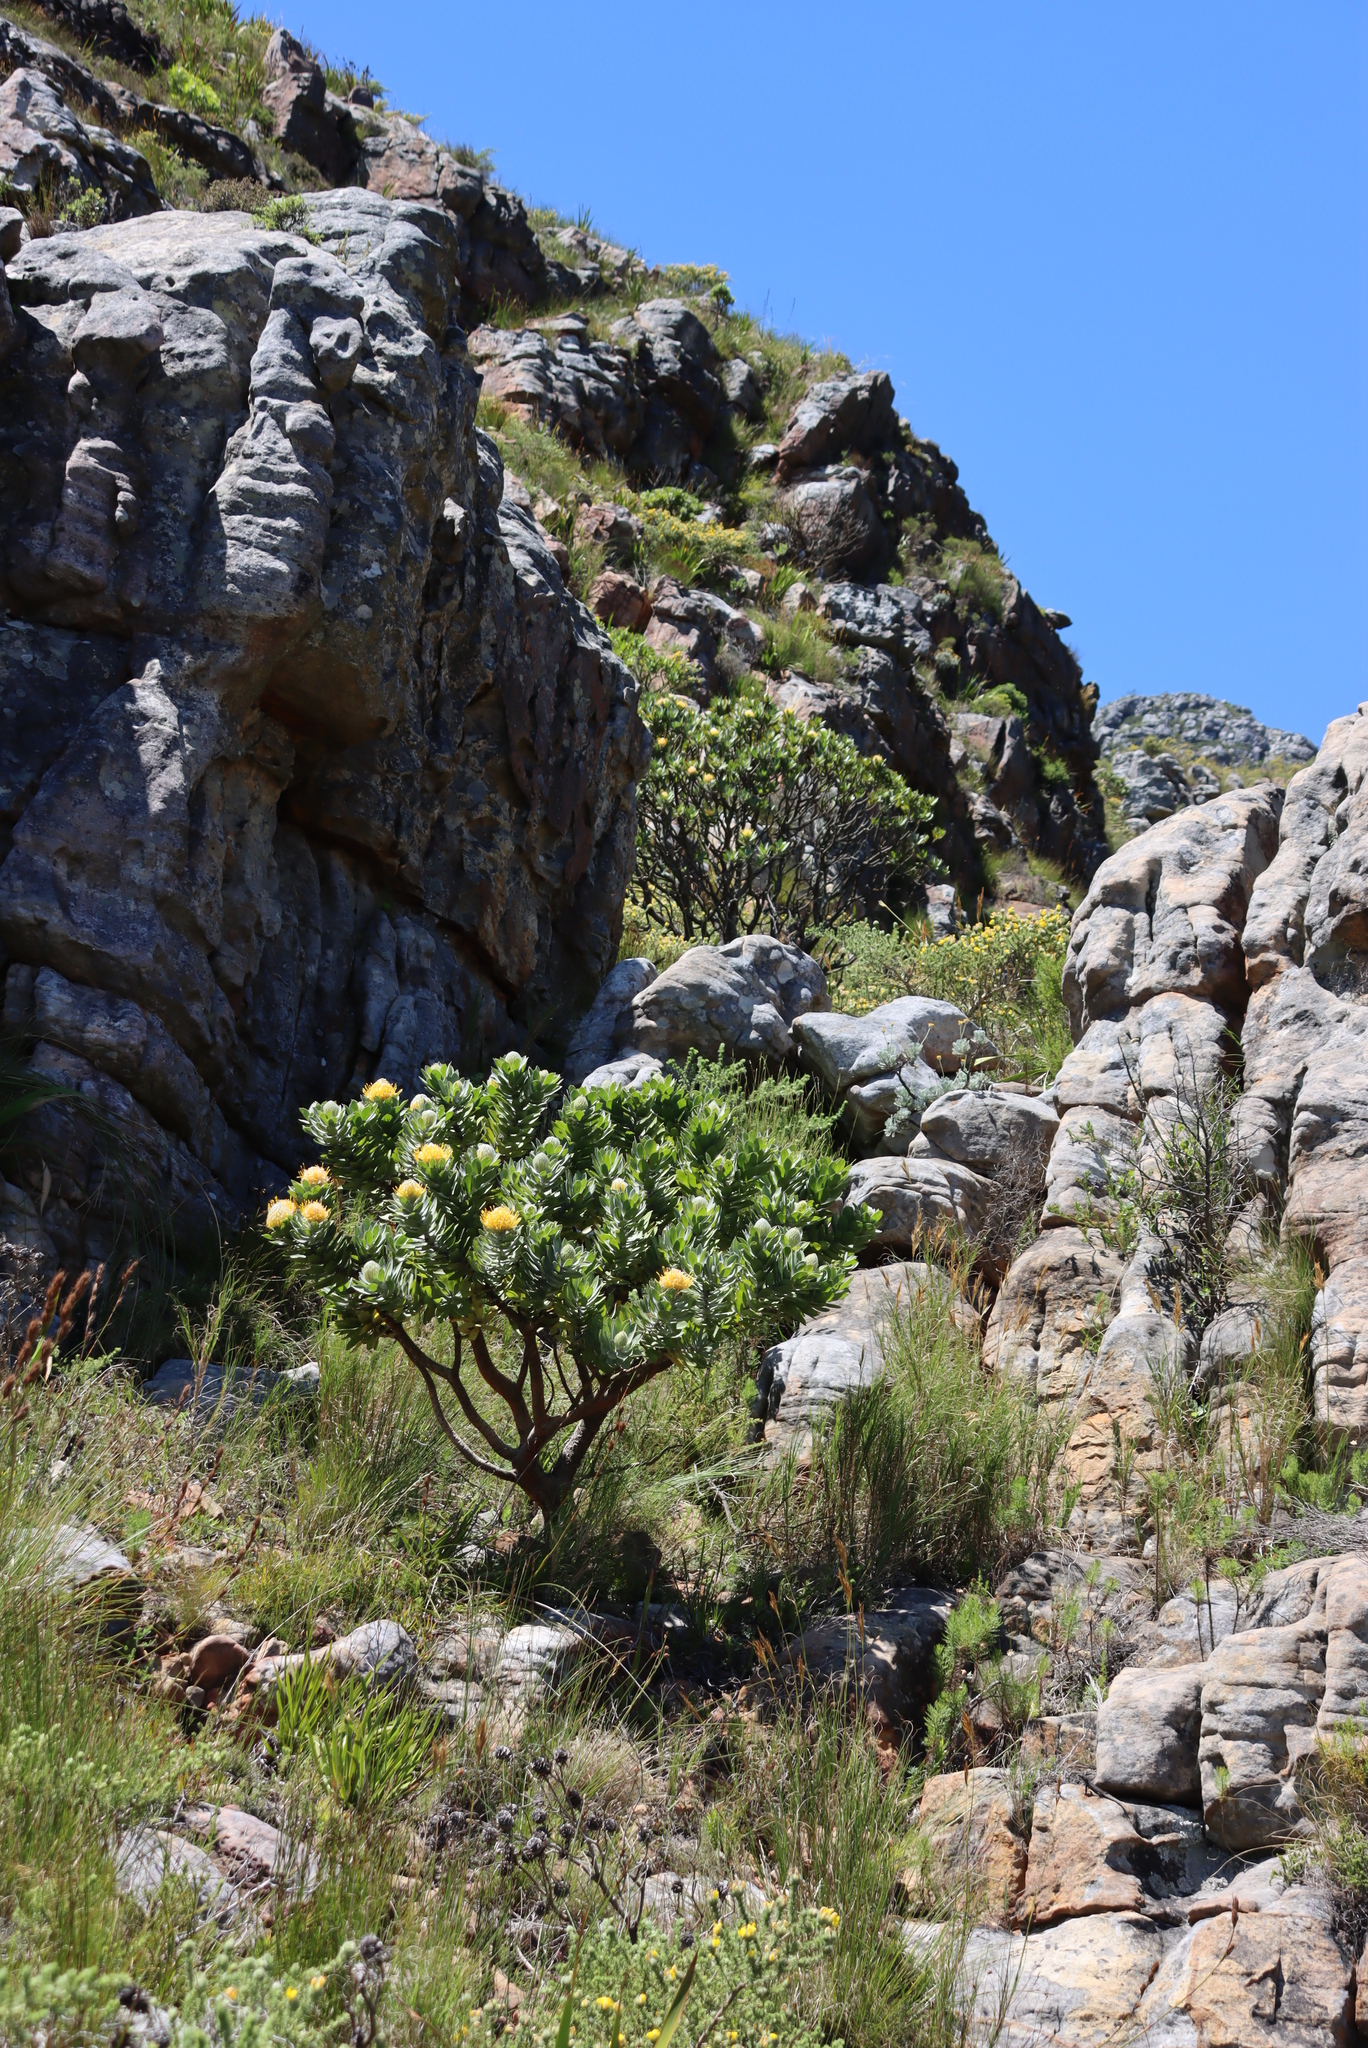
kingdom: Plantae
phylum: Tracheophyta
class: Magnoliopsida
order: Proteales
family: Proteaceae
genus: Leucospermum
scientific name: Leucospermum conocarpodendron
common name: Tree pincushion
